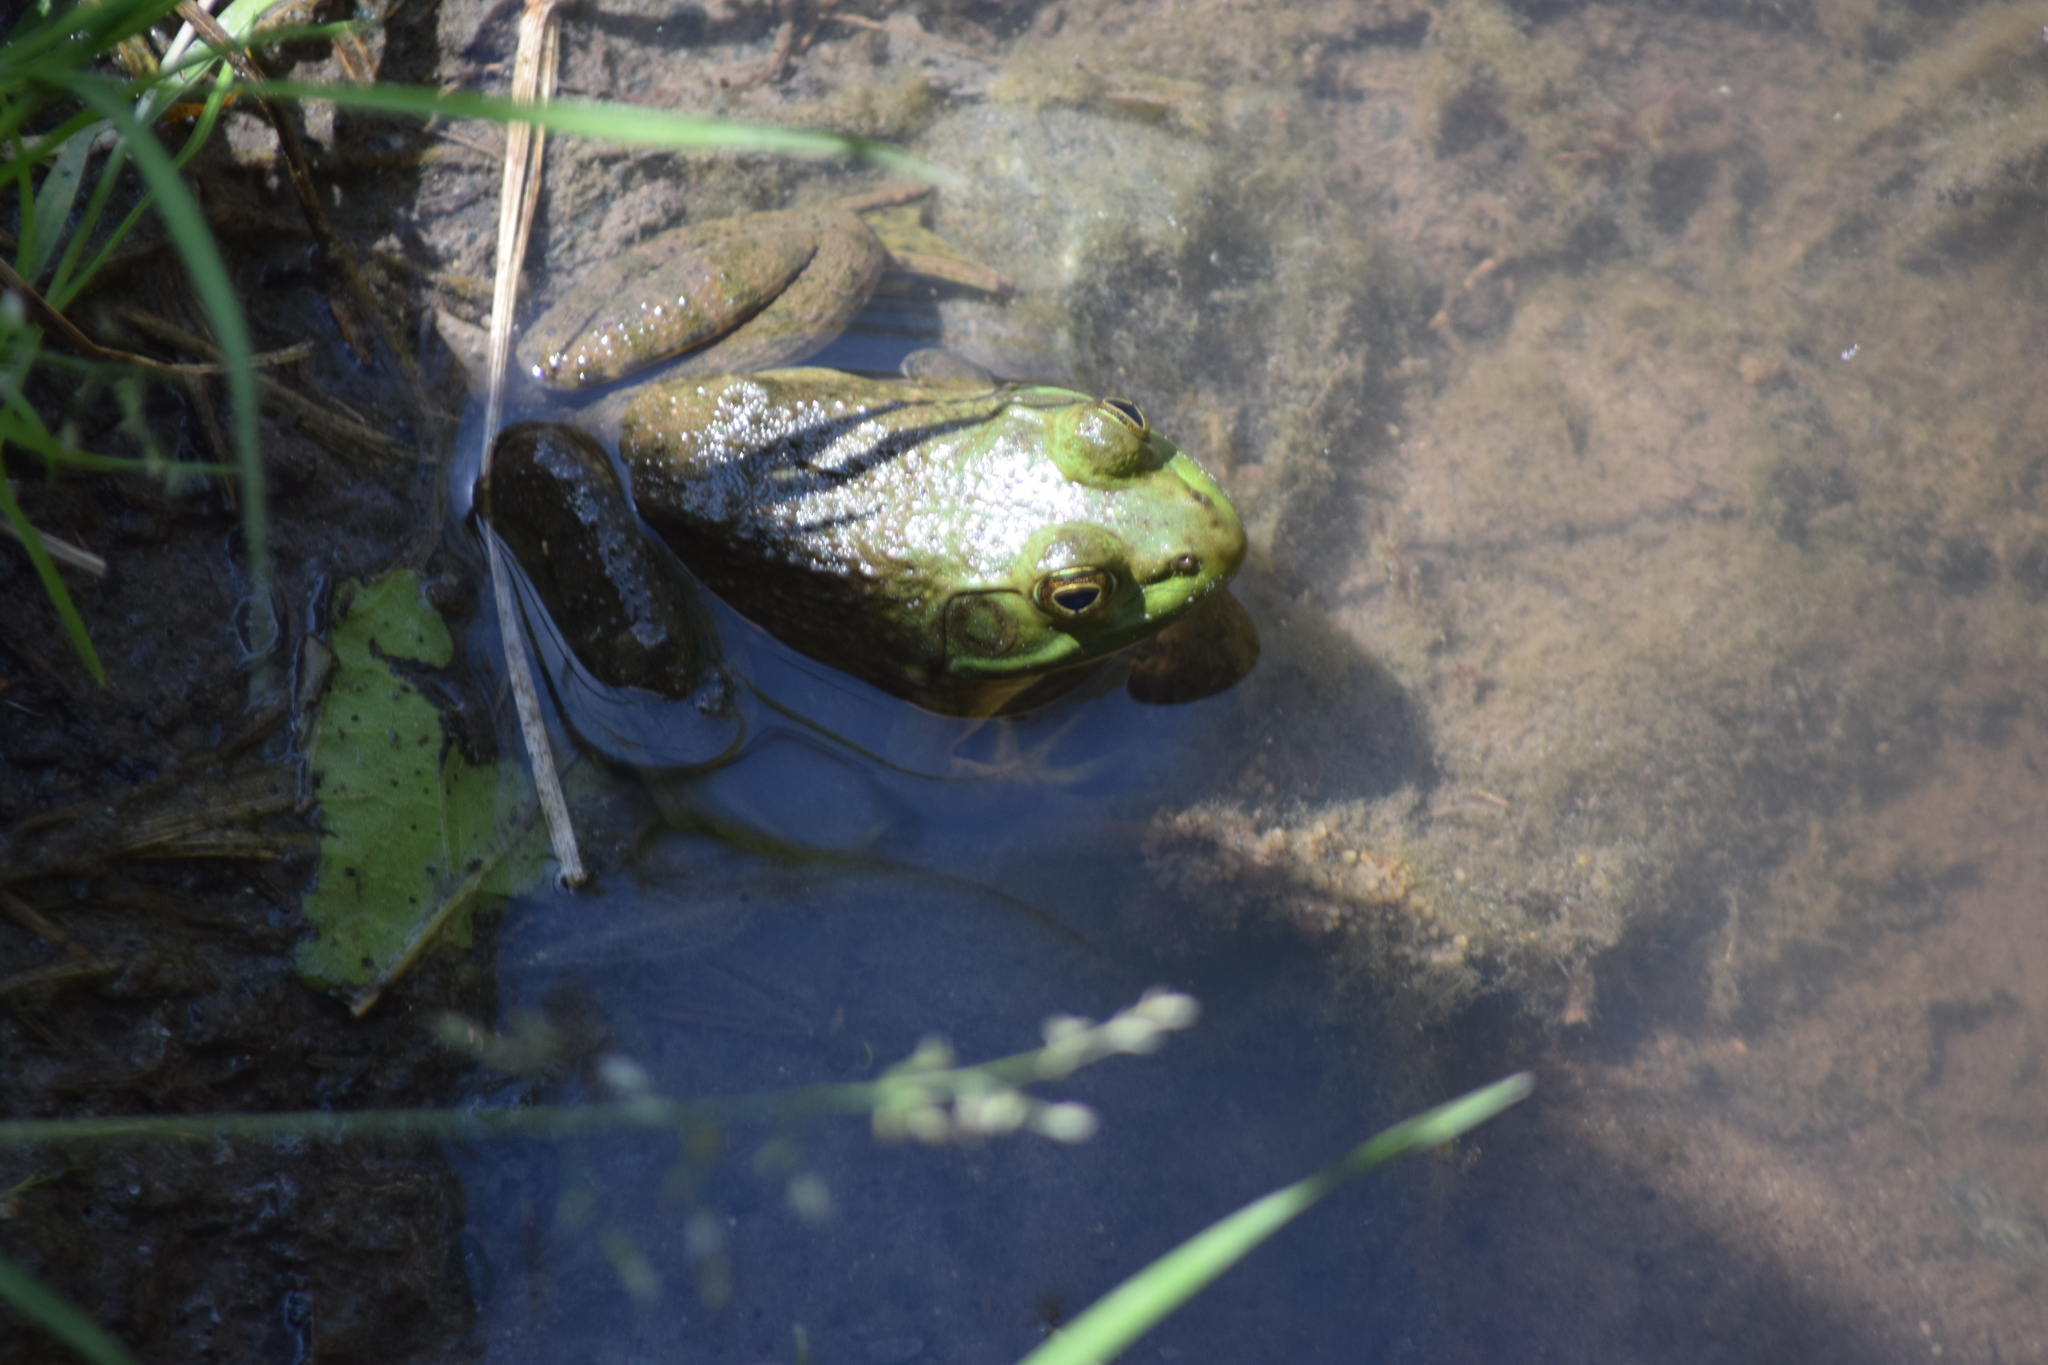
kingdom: Animalia
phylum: Chordata
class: Amphibia
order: Anura
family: Ranidae
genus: Lithobates
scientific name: Lithobates catesbeianus
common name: American bullfrog
